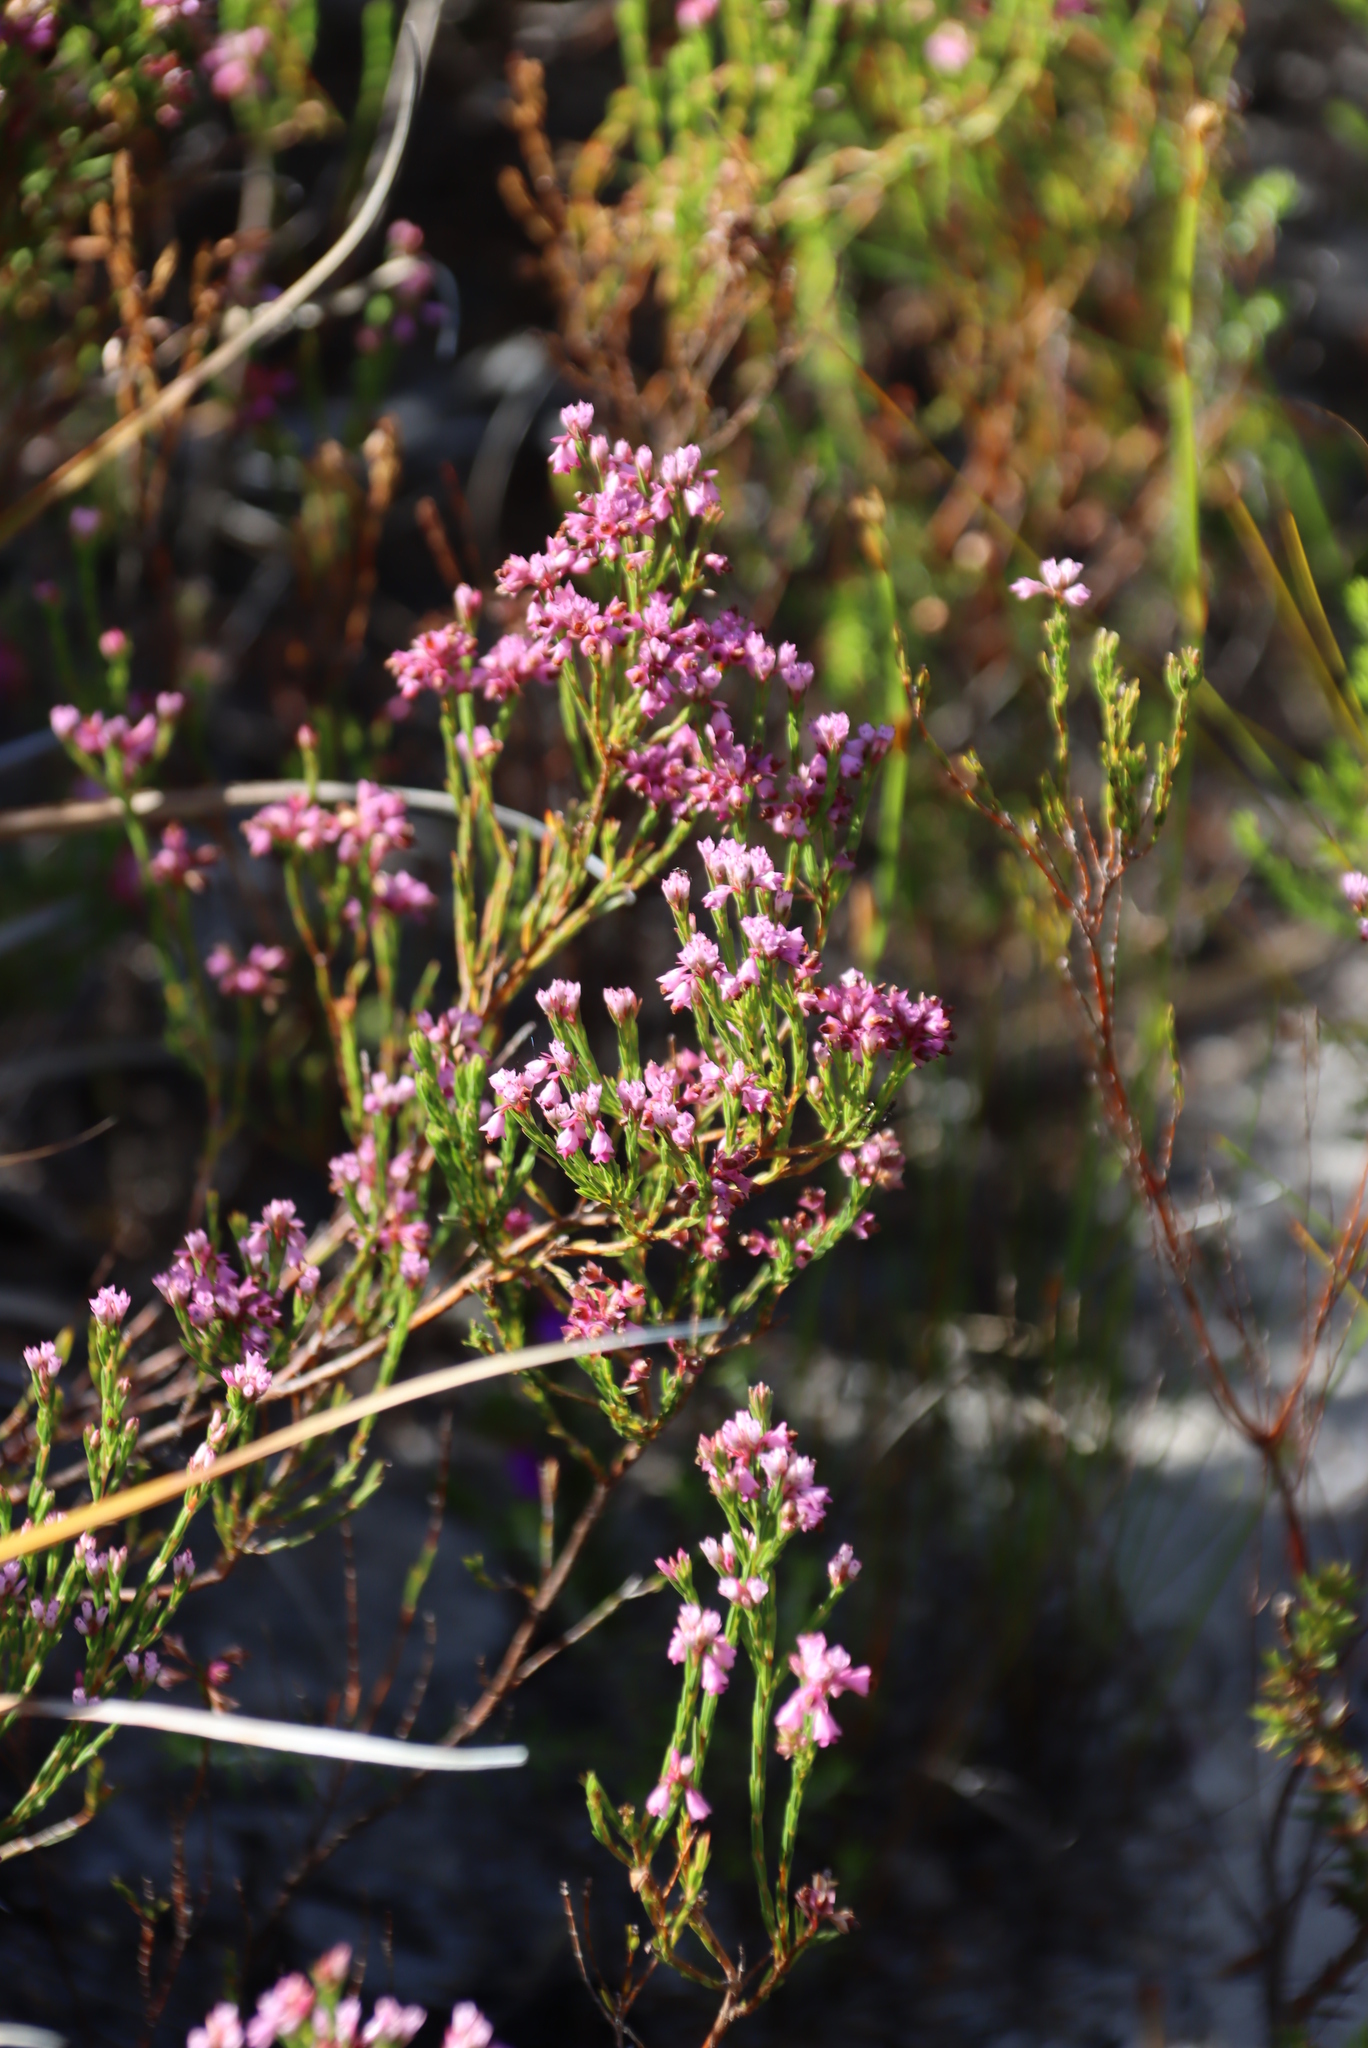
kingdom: Plantae
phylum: Tracheophyta
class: Magnoliopsida
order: Ericales
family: Ericaceae
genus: Erica
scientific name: Erica corifolia
